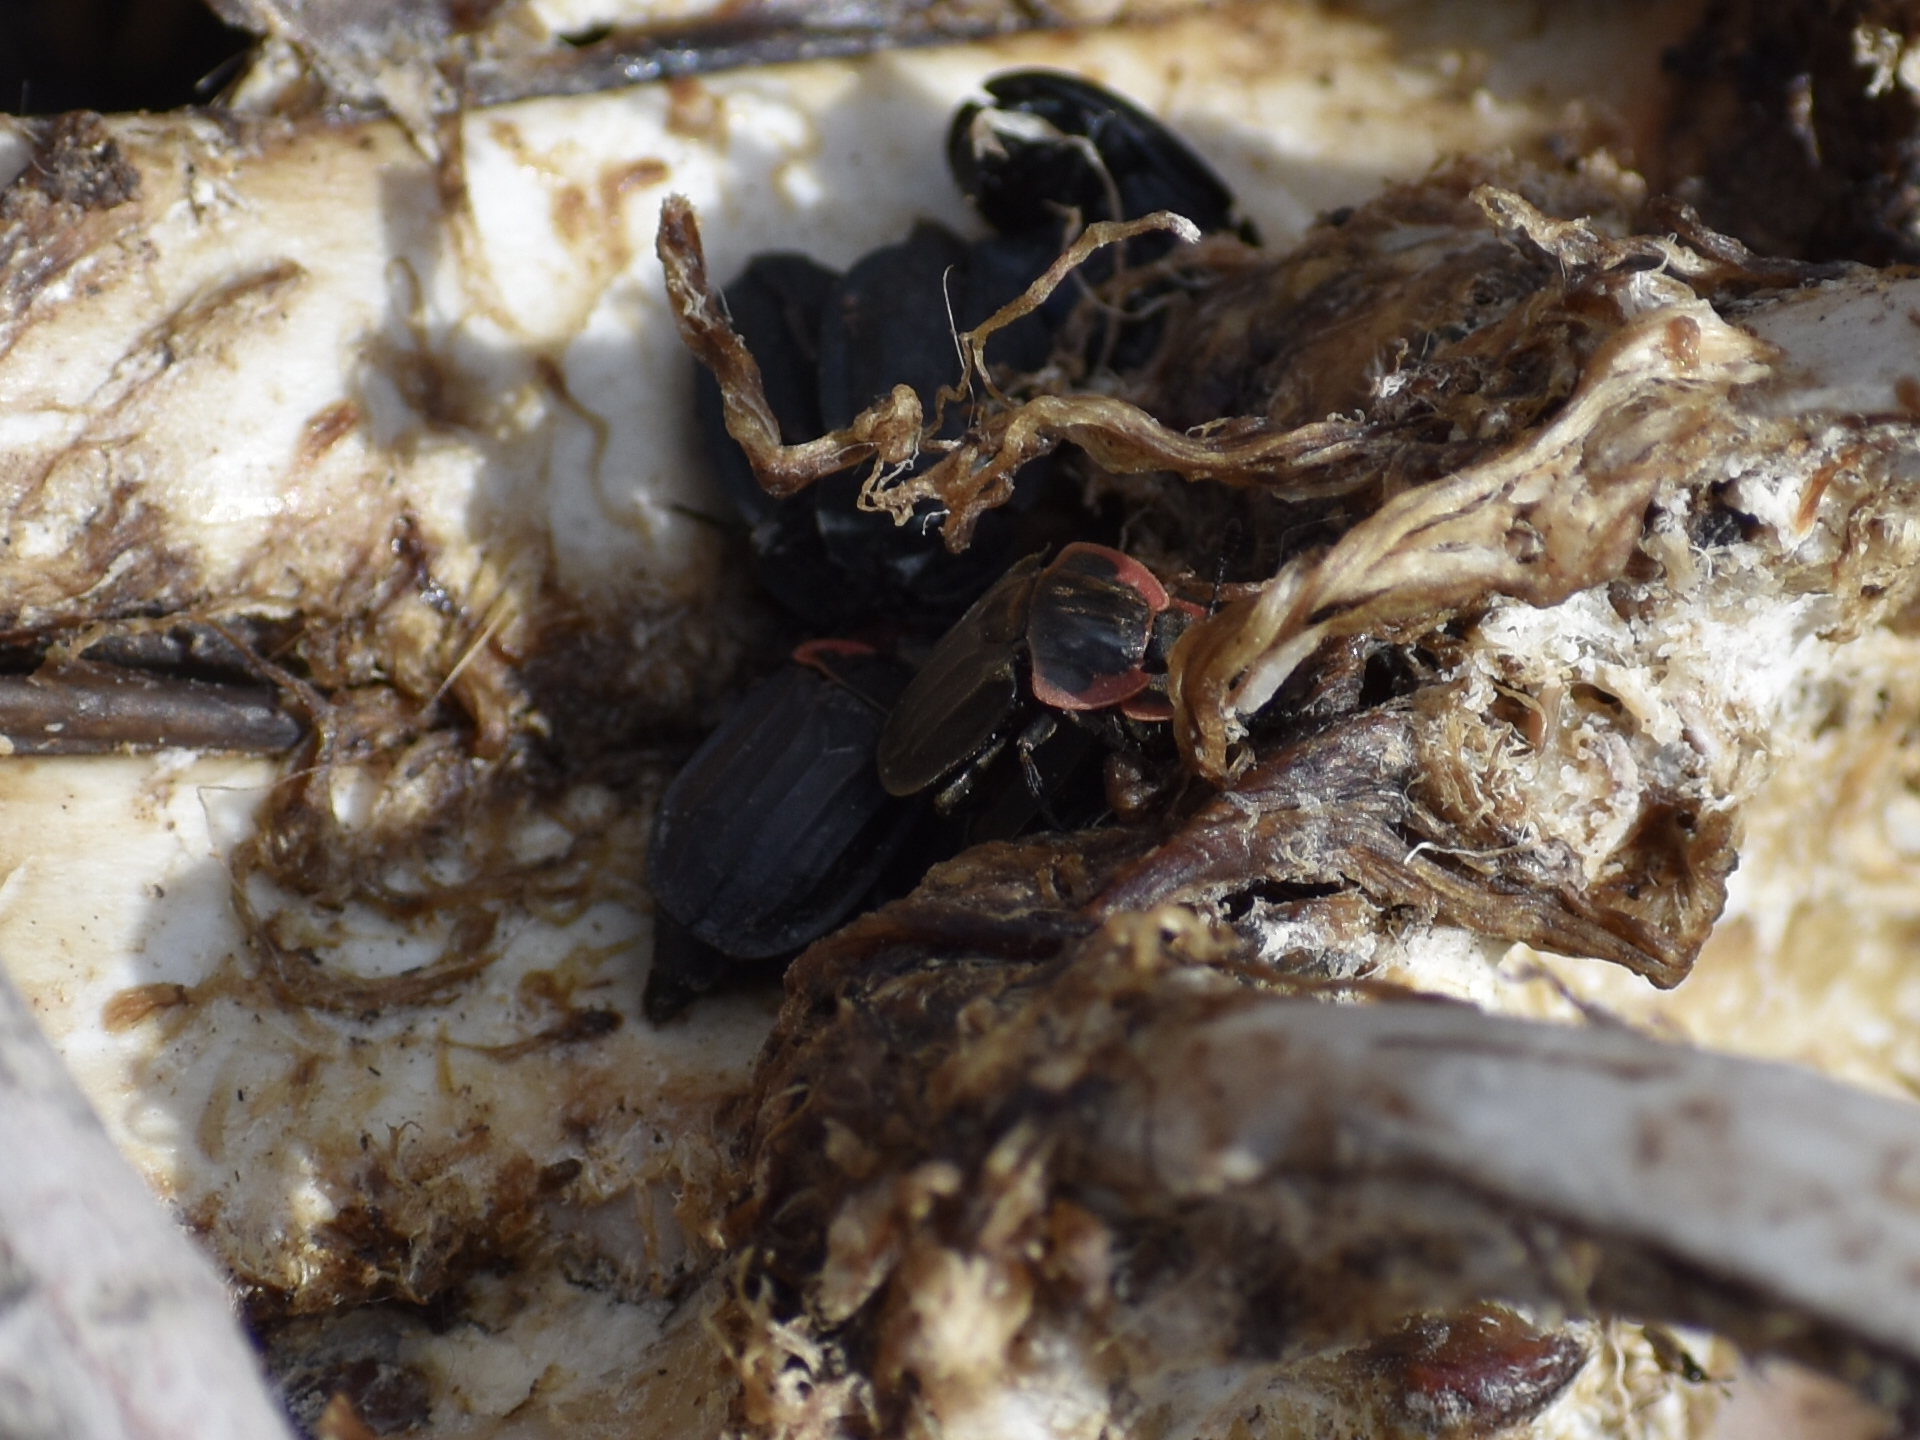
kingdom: Animalia
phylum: Arthropoda
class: Insecta
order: Coleoptera
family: Staphylinidae
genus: Oiceoptoma
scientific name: Oiceoptoma noveboracense
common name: Margined carrion beetle
